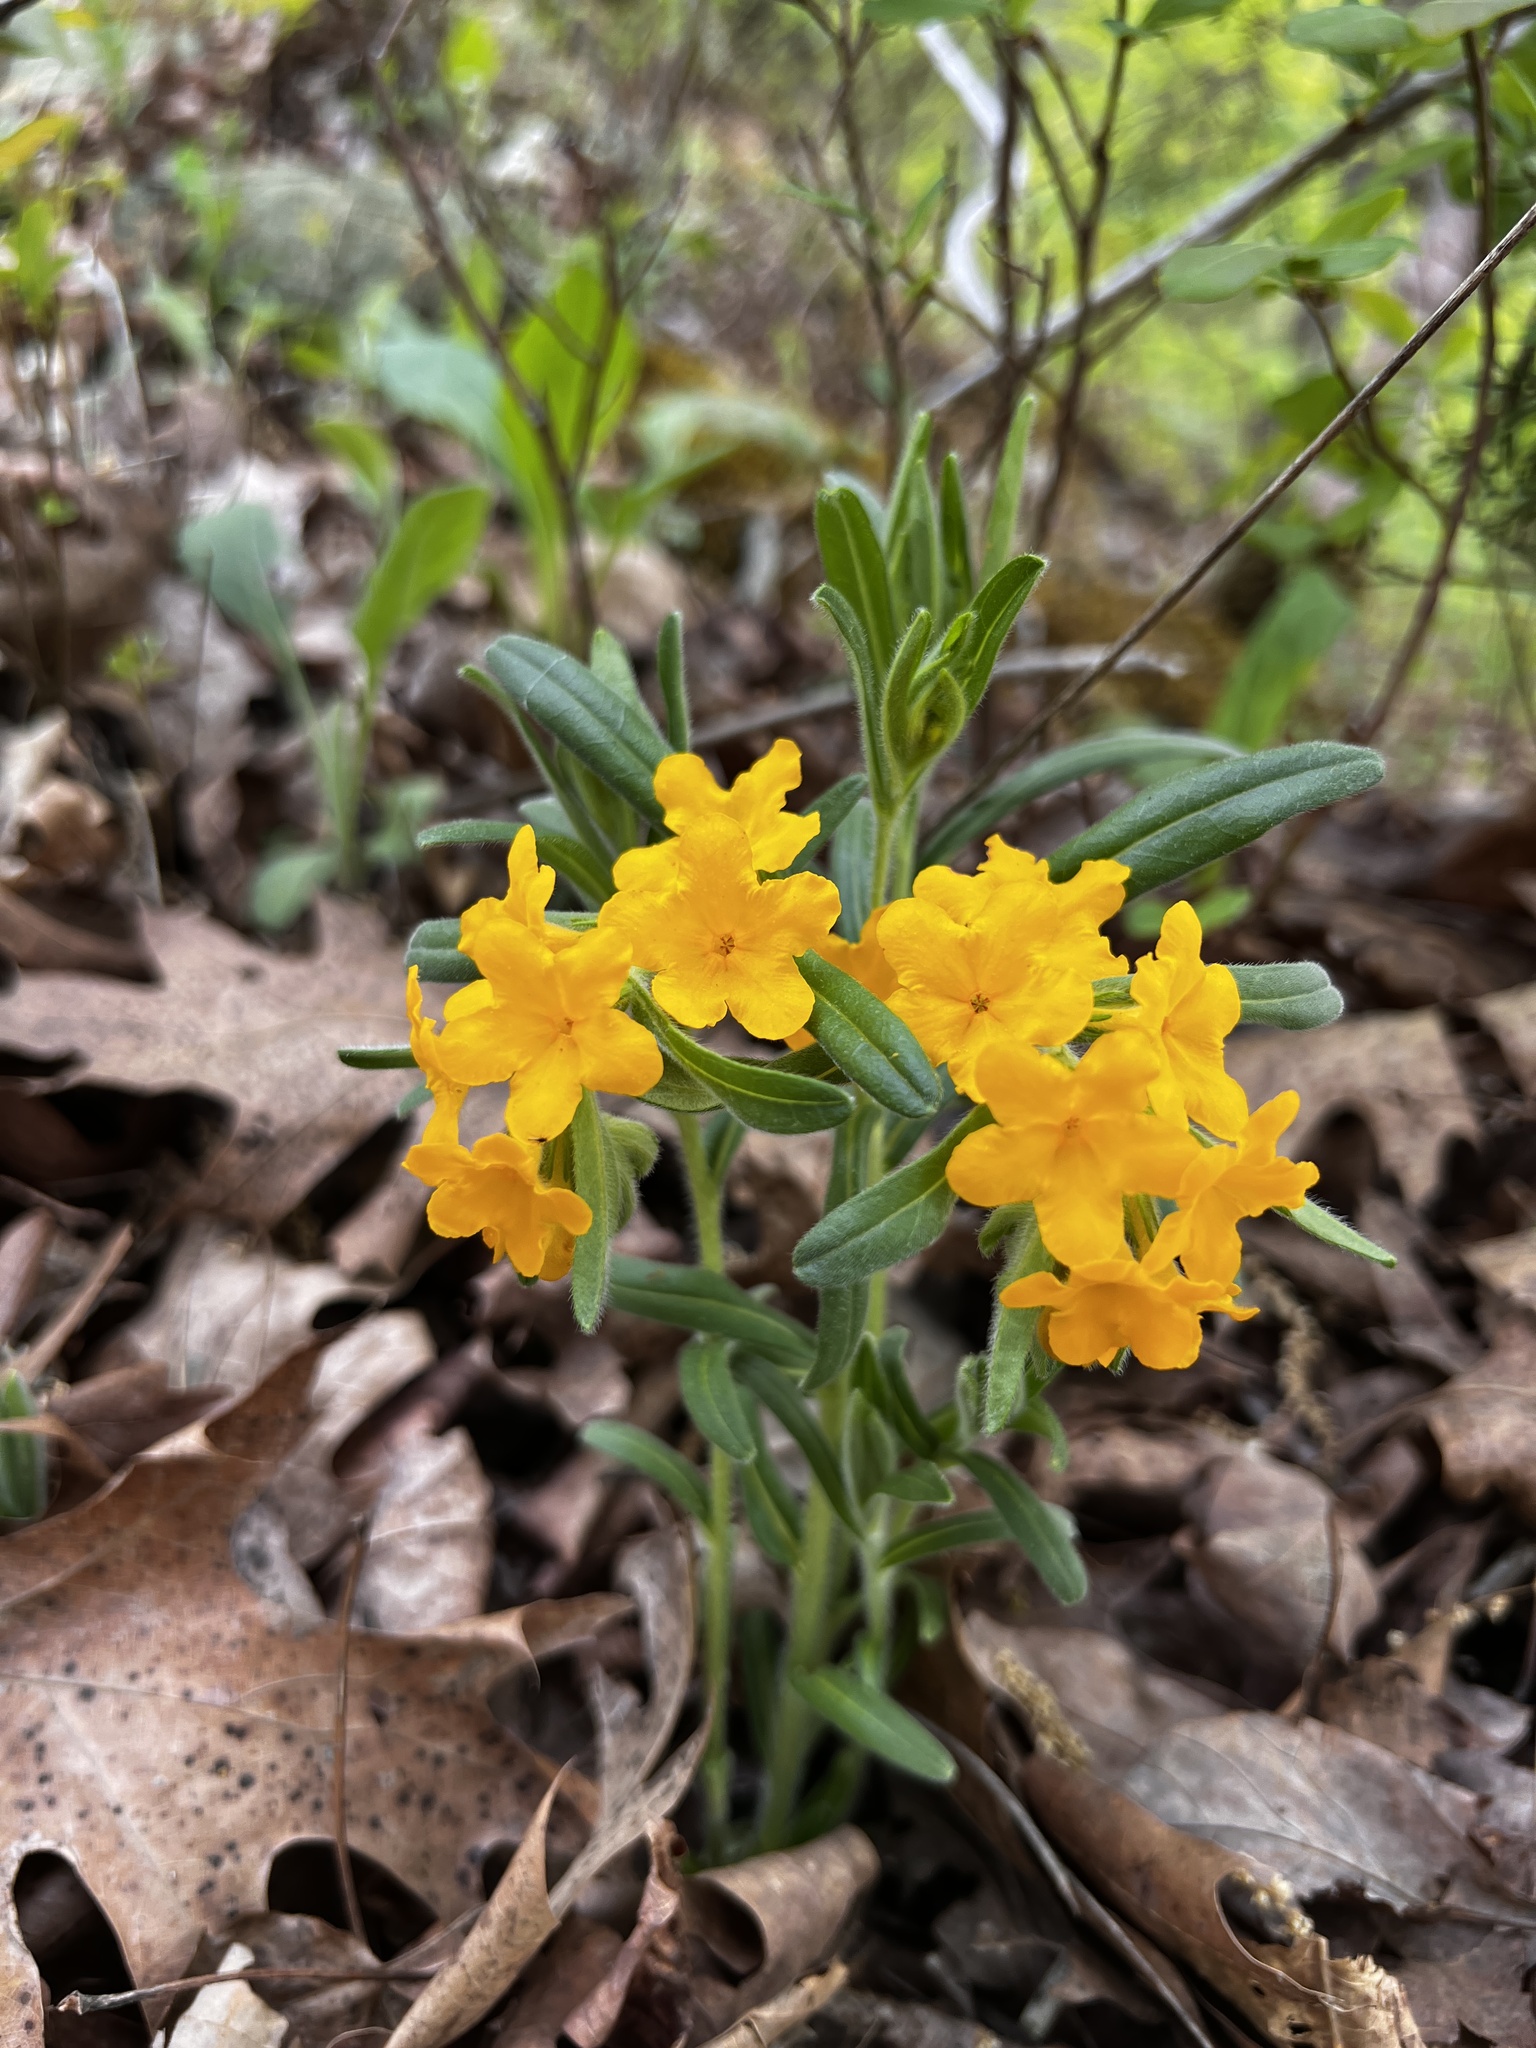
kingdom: Plantae
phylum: Tracheophyta
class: Magnoliopsida
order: Boraginales
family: Boraginaceae
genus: Lithospermum
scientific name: Lithospermum canescens
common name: Hoary puccoon
